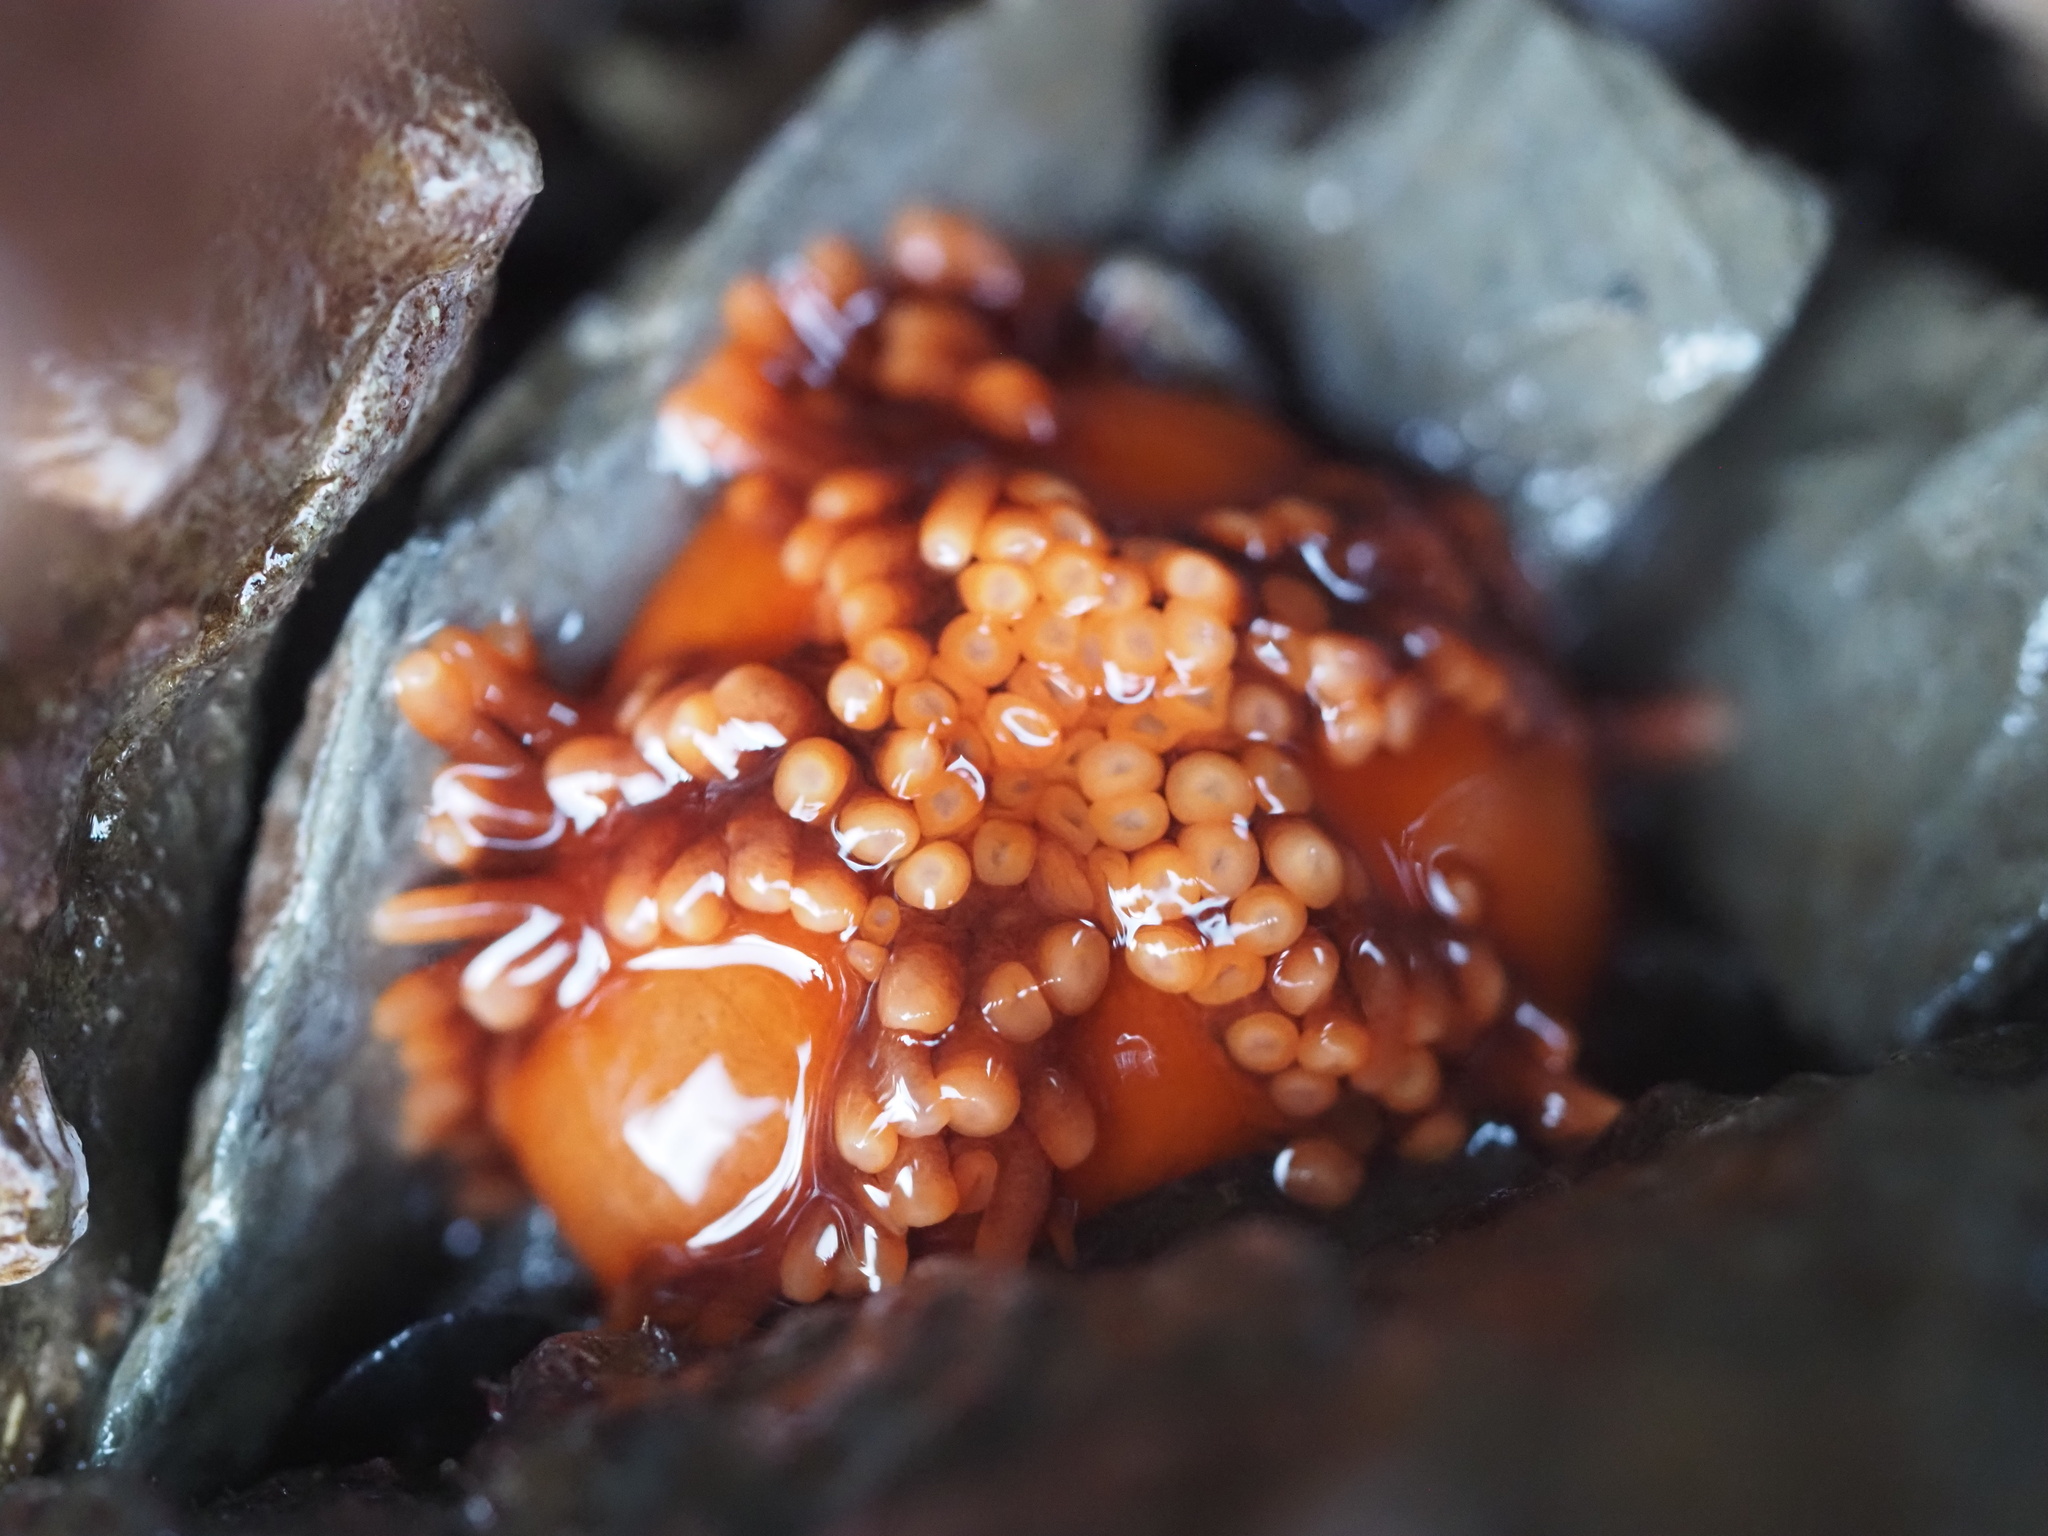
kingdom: Animalia
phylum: Echinodermata
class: Holothuroidea
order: Dendrochirotida
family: Cucumariidae
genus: Cucumaria
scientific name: Cucumaria miniata
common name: Orange sea cucumber
